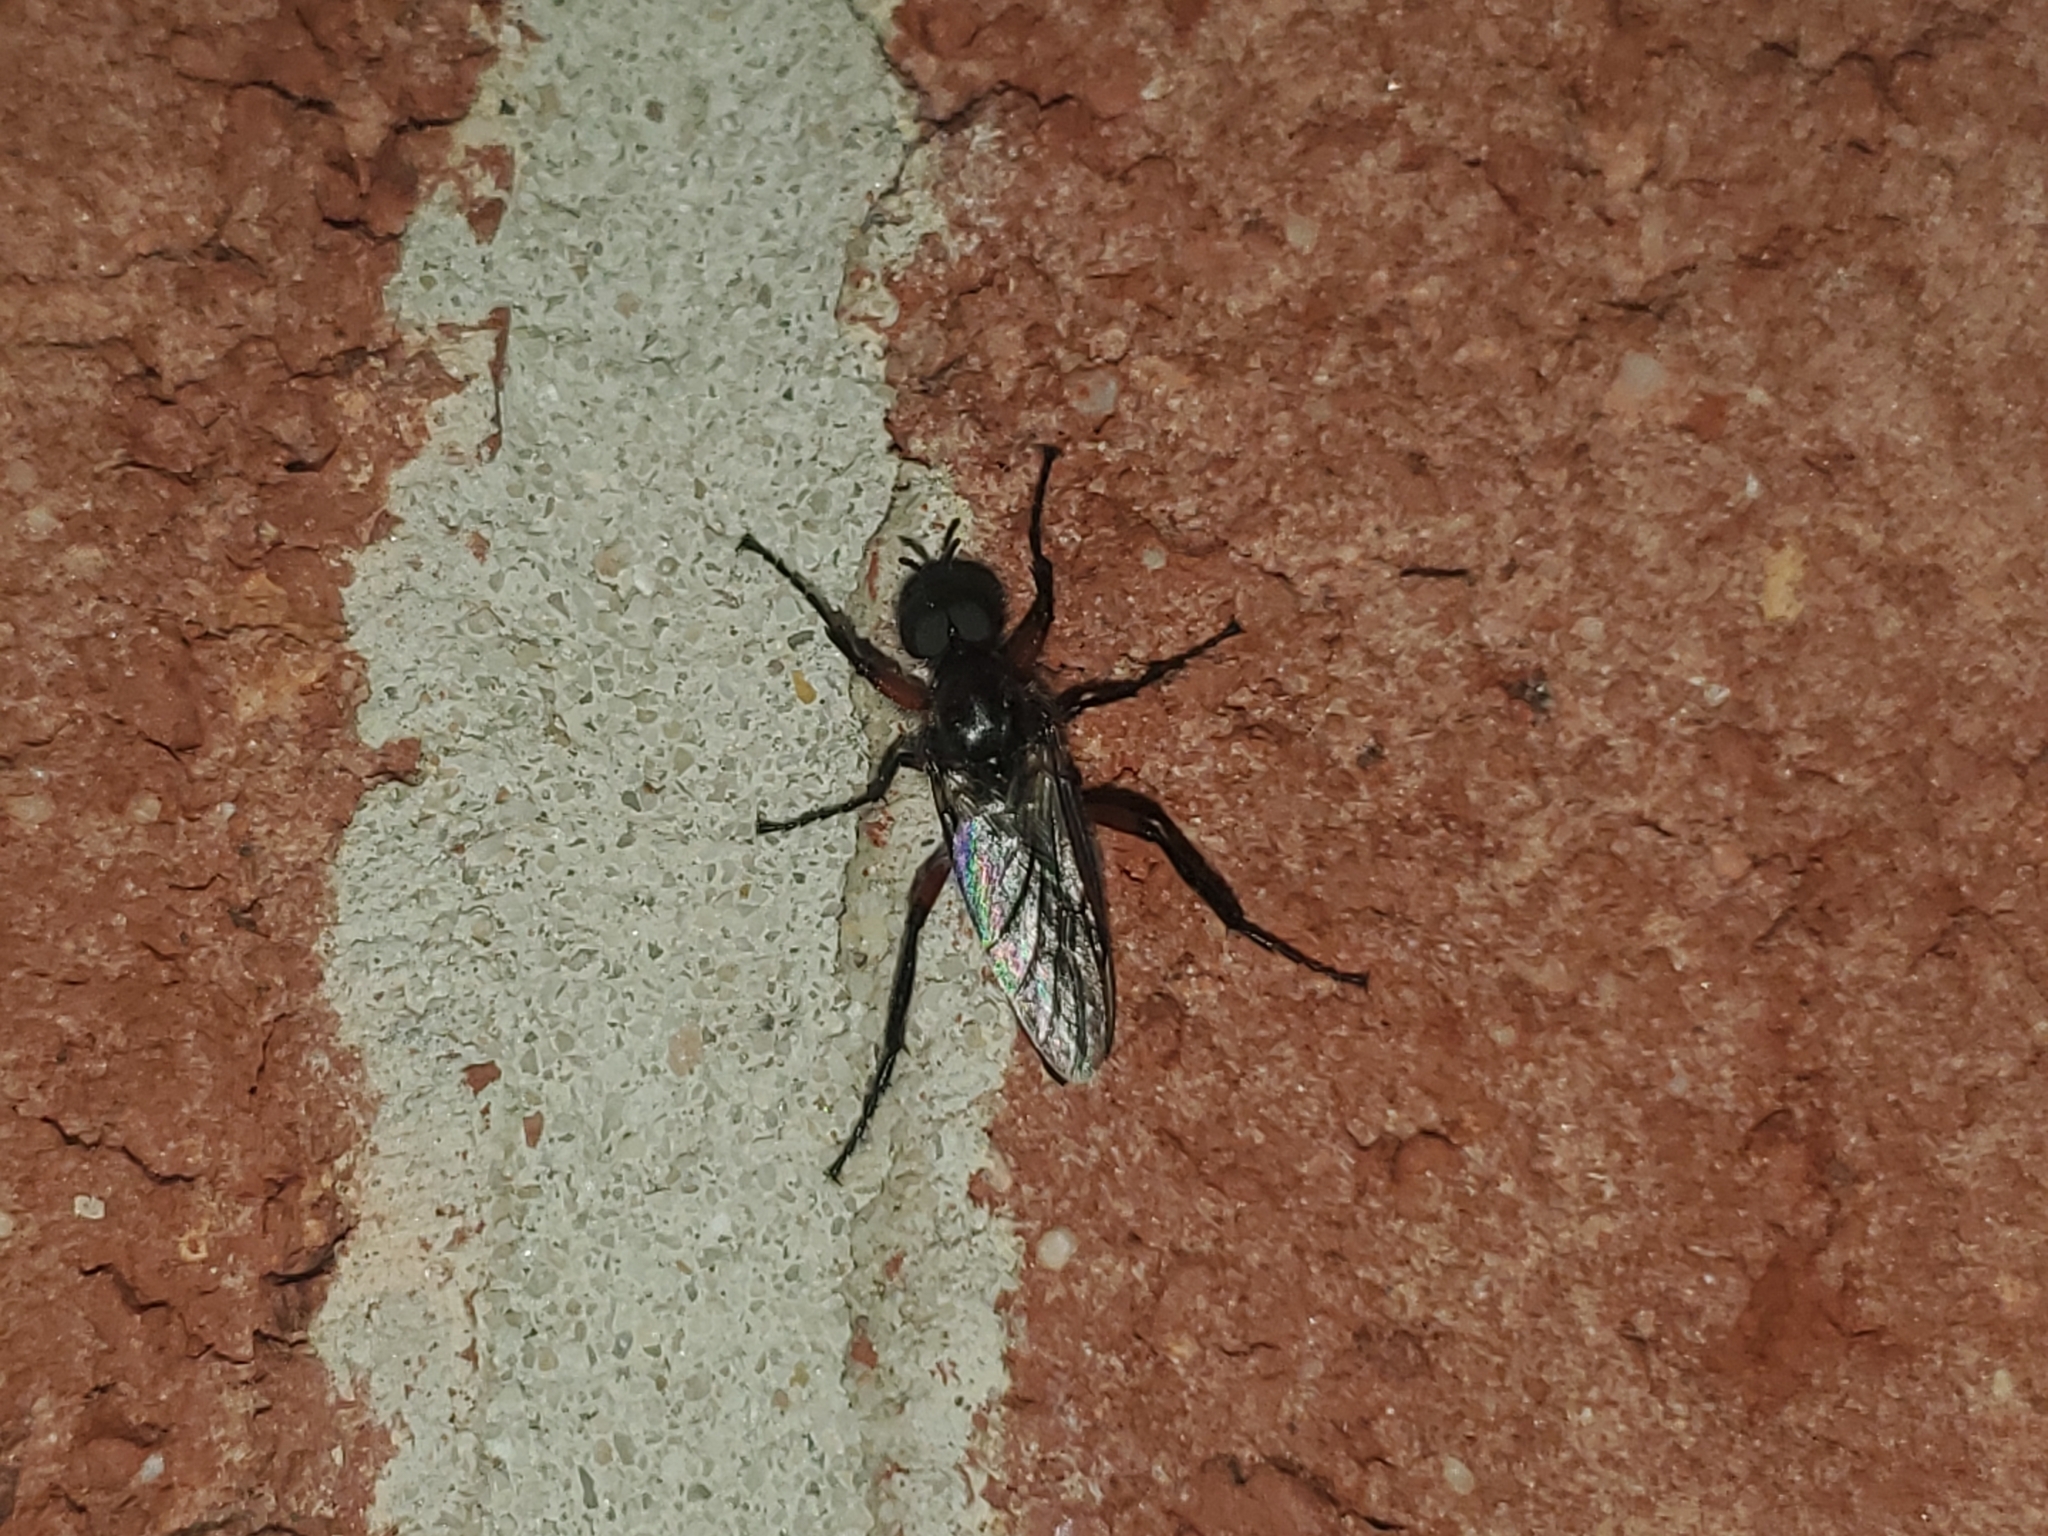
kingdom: Animalia
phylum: Arthropoda
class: Insecta
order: Diptera
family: Bibionidae
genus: Bibio
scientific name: Bibio femoratus
